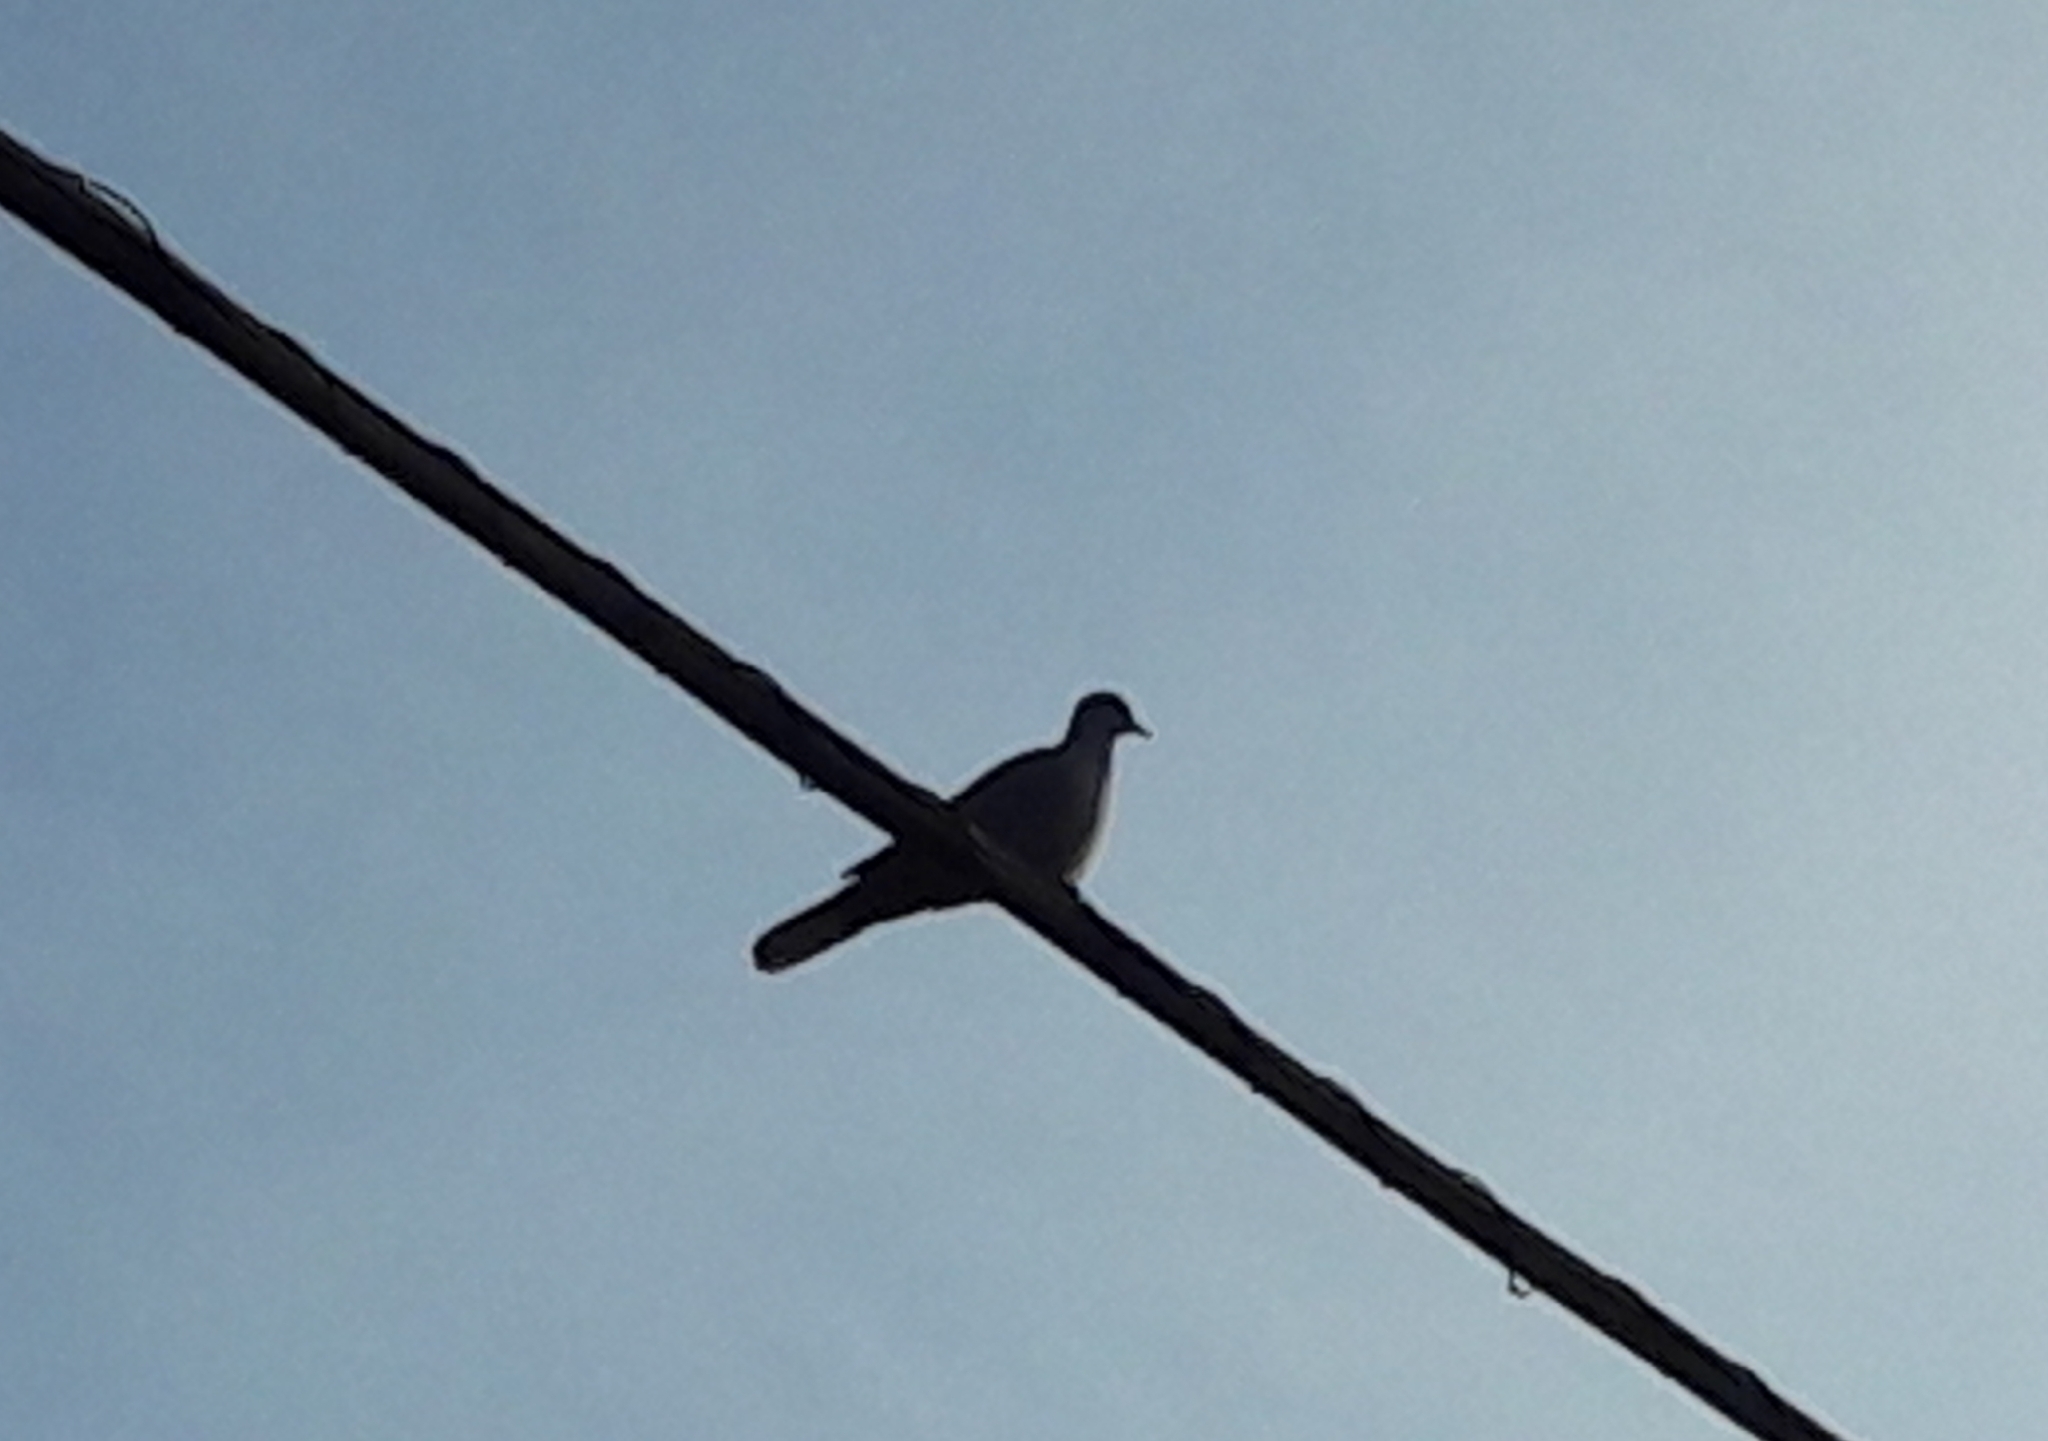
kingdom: Animalia
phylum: Chordata
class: Aves
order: Columbiformes
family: Columbidae
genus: Streptopelia
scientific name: Streptopelia decaocto
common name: Eurasian collared dove
